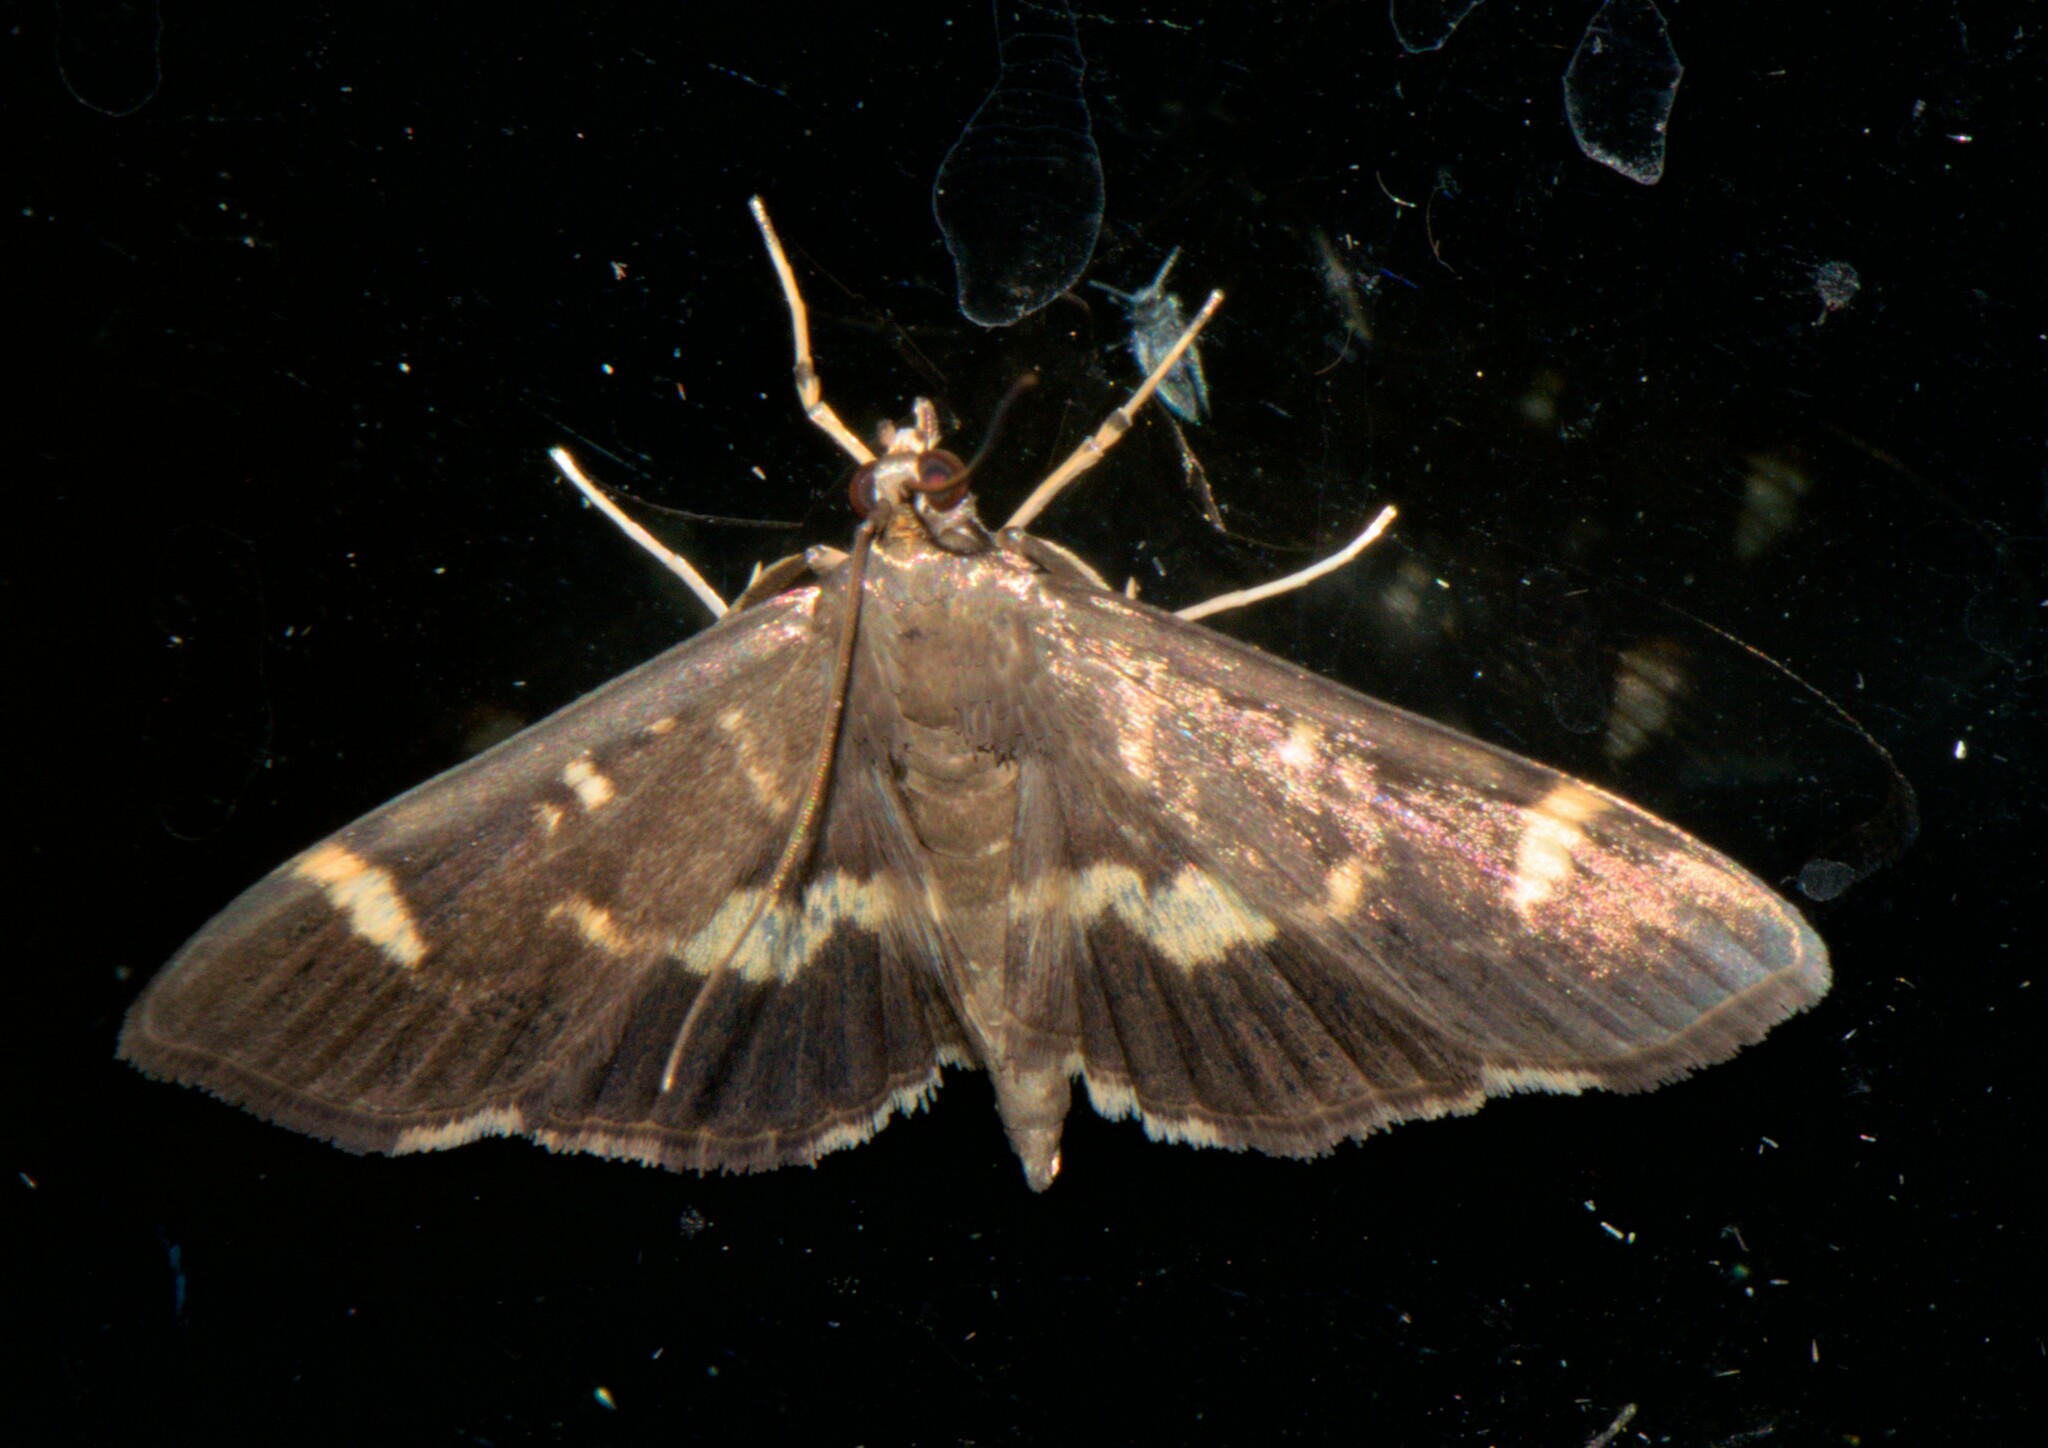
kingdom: Animalia
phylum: Arthropoda
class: Insecta
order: Lepidoptera
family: Crambidae
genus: Hymenia
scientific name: Hymenia perspectalis
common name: Spotted beet webworm
